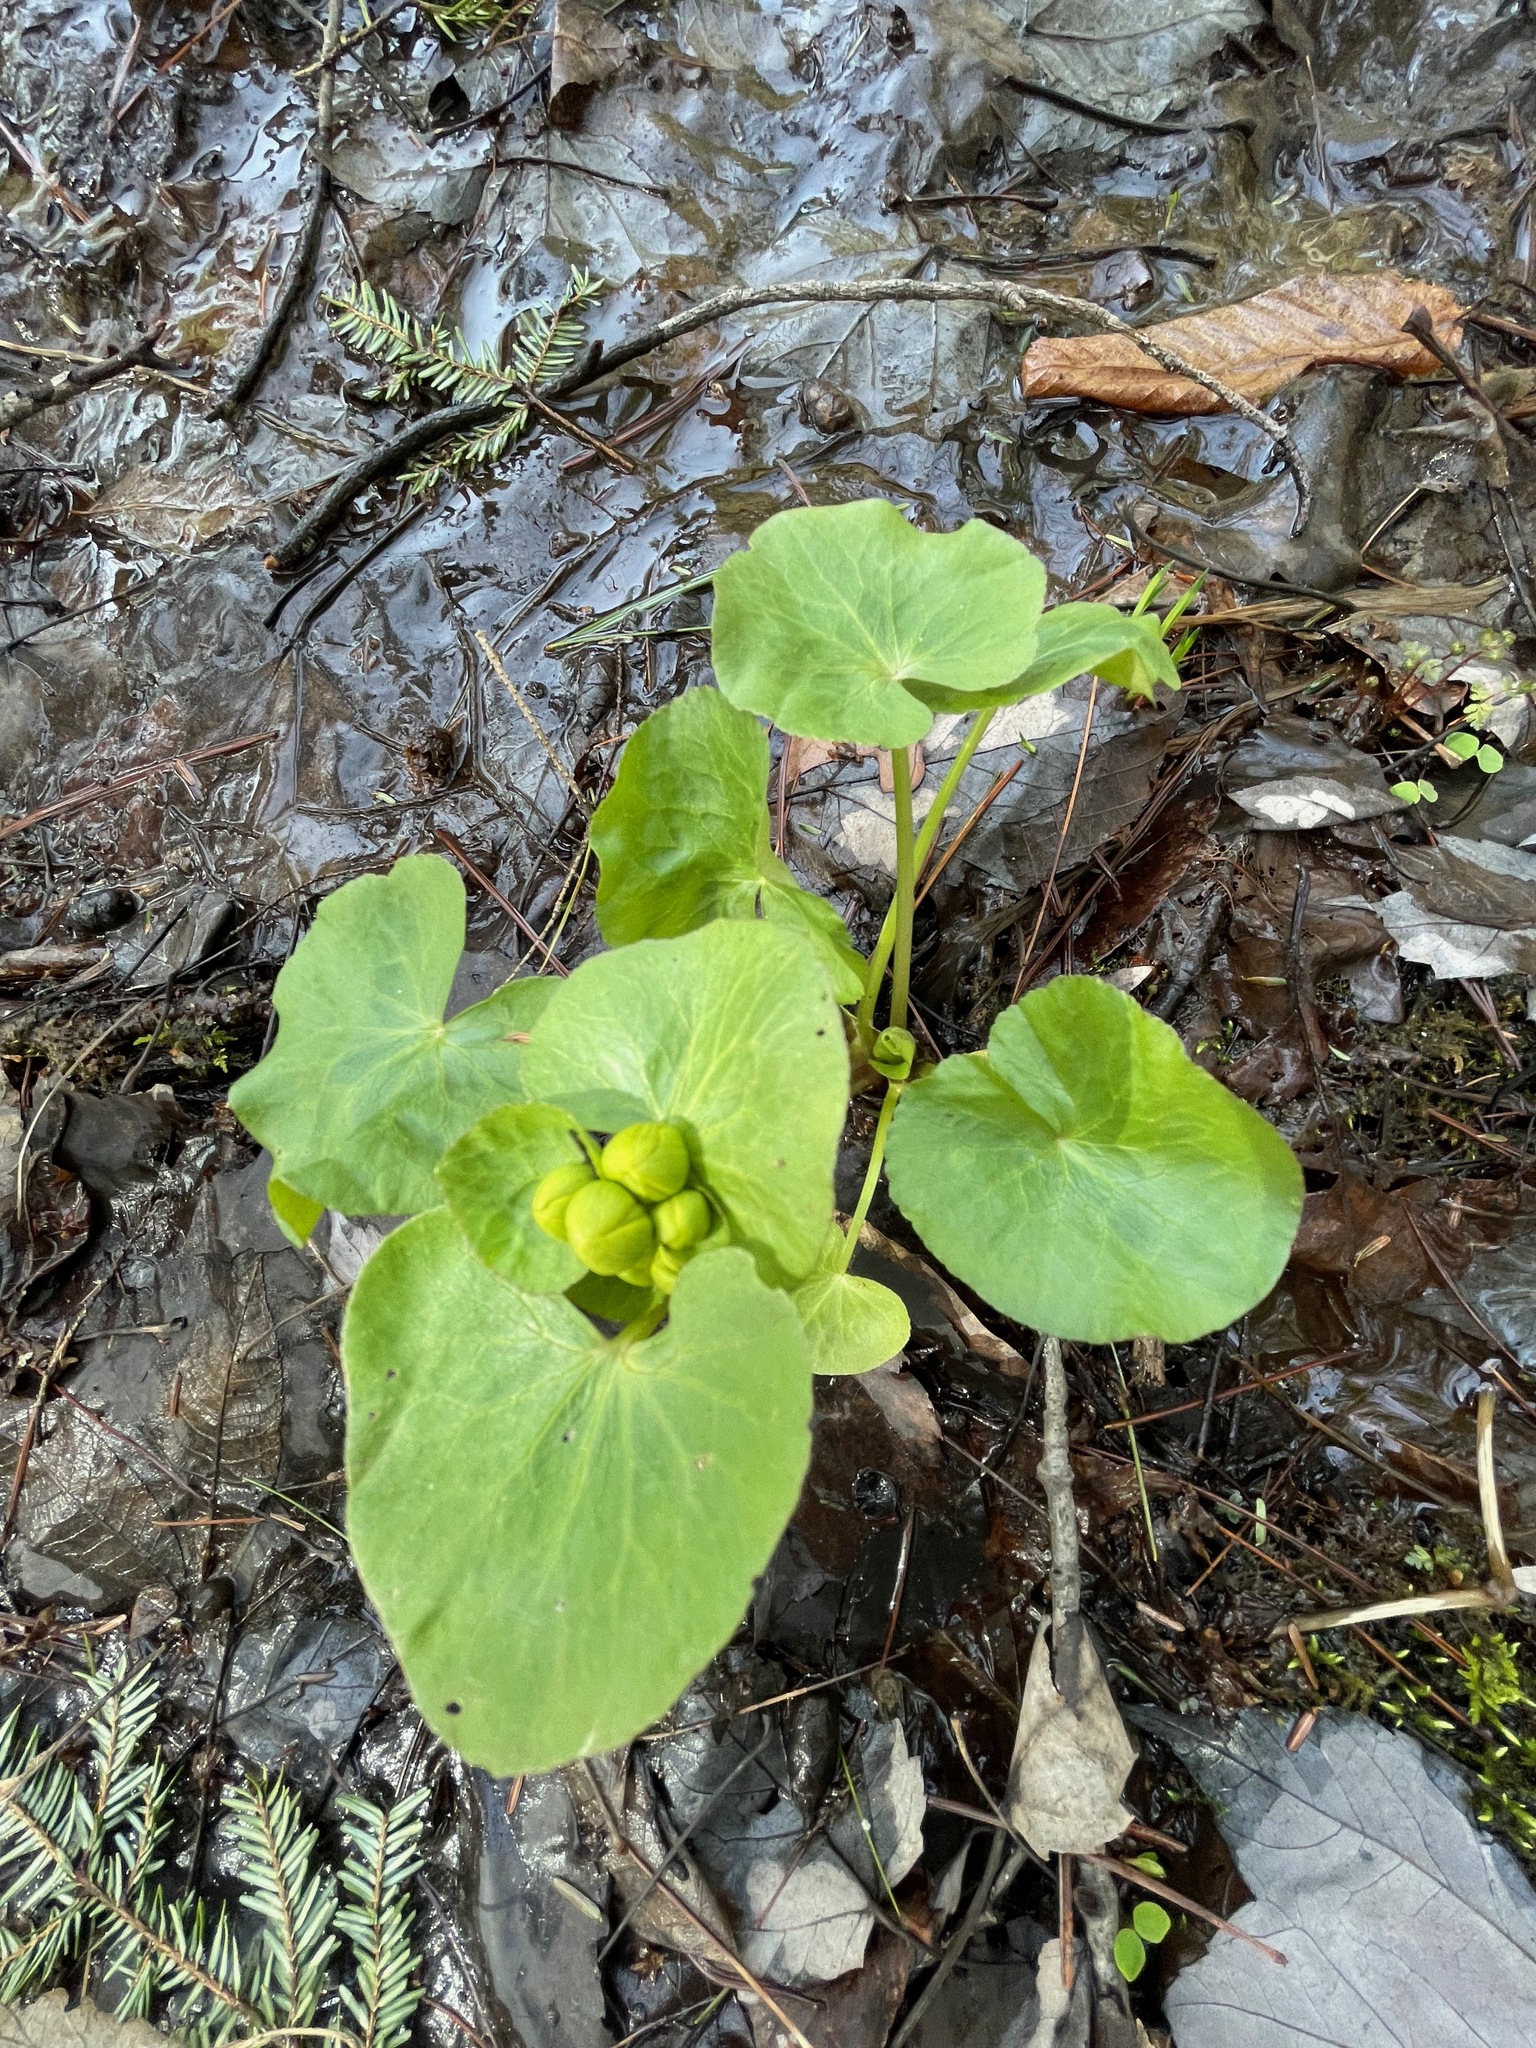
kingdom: Plantae
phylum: Tracheophyta
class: Magnoliopsida
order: Ranunculales
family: Ranunculaceae
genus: Caltha
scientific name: Caltha palustris
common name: Marsh marigold
